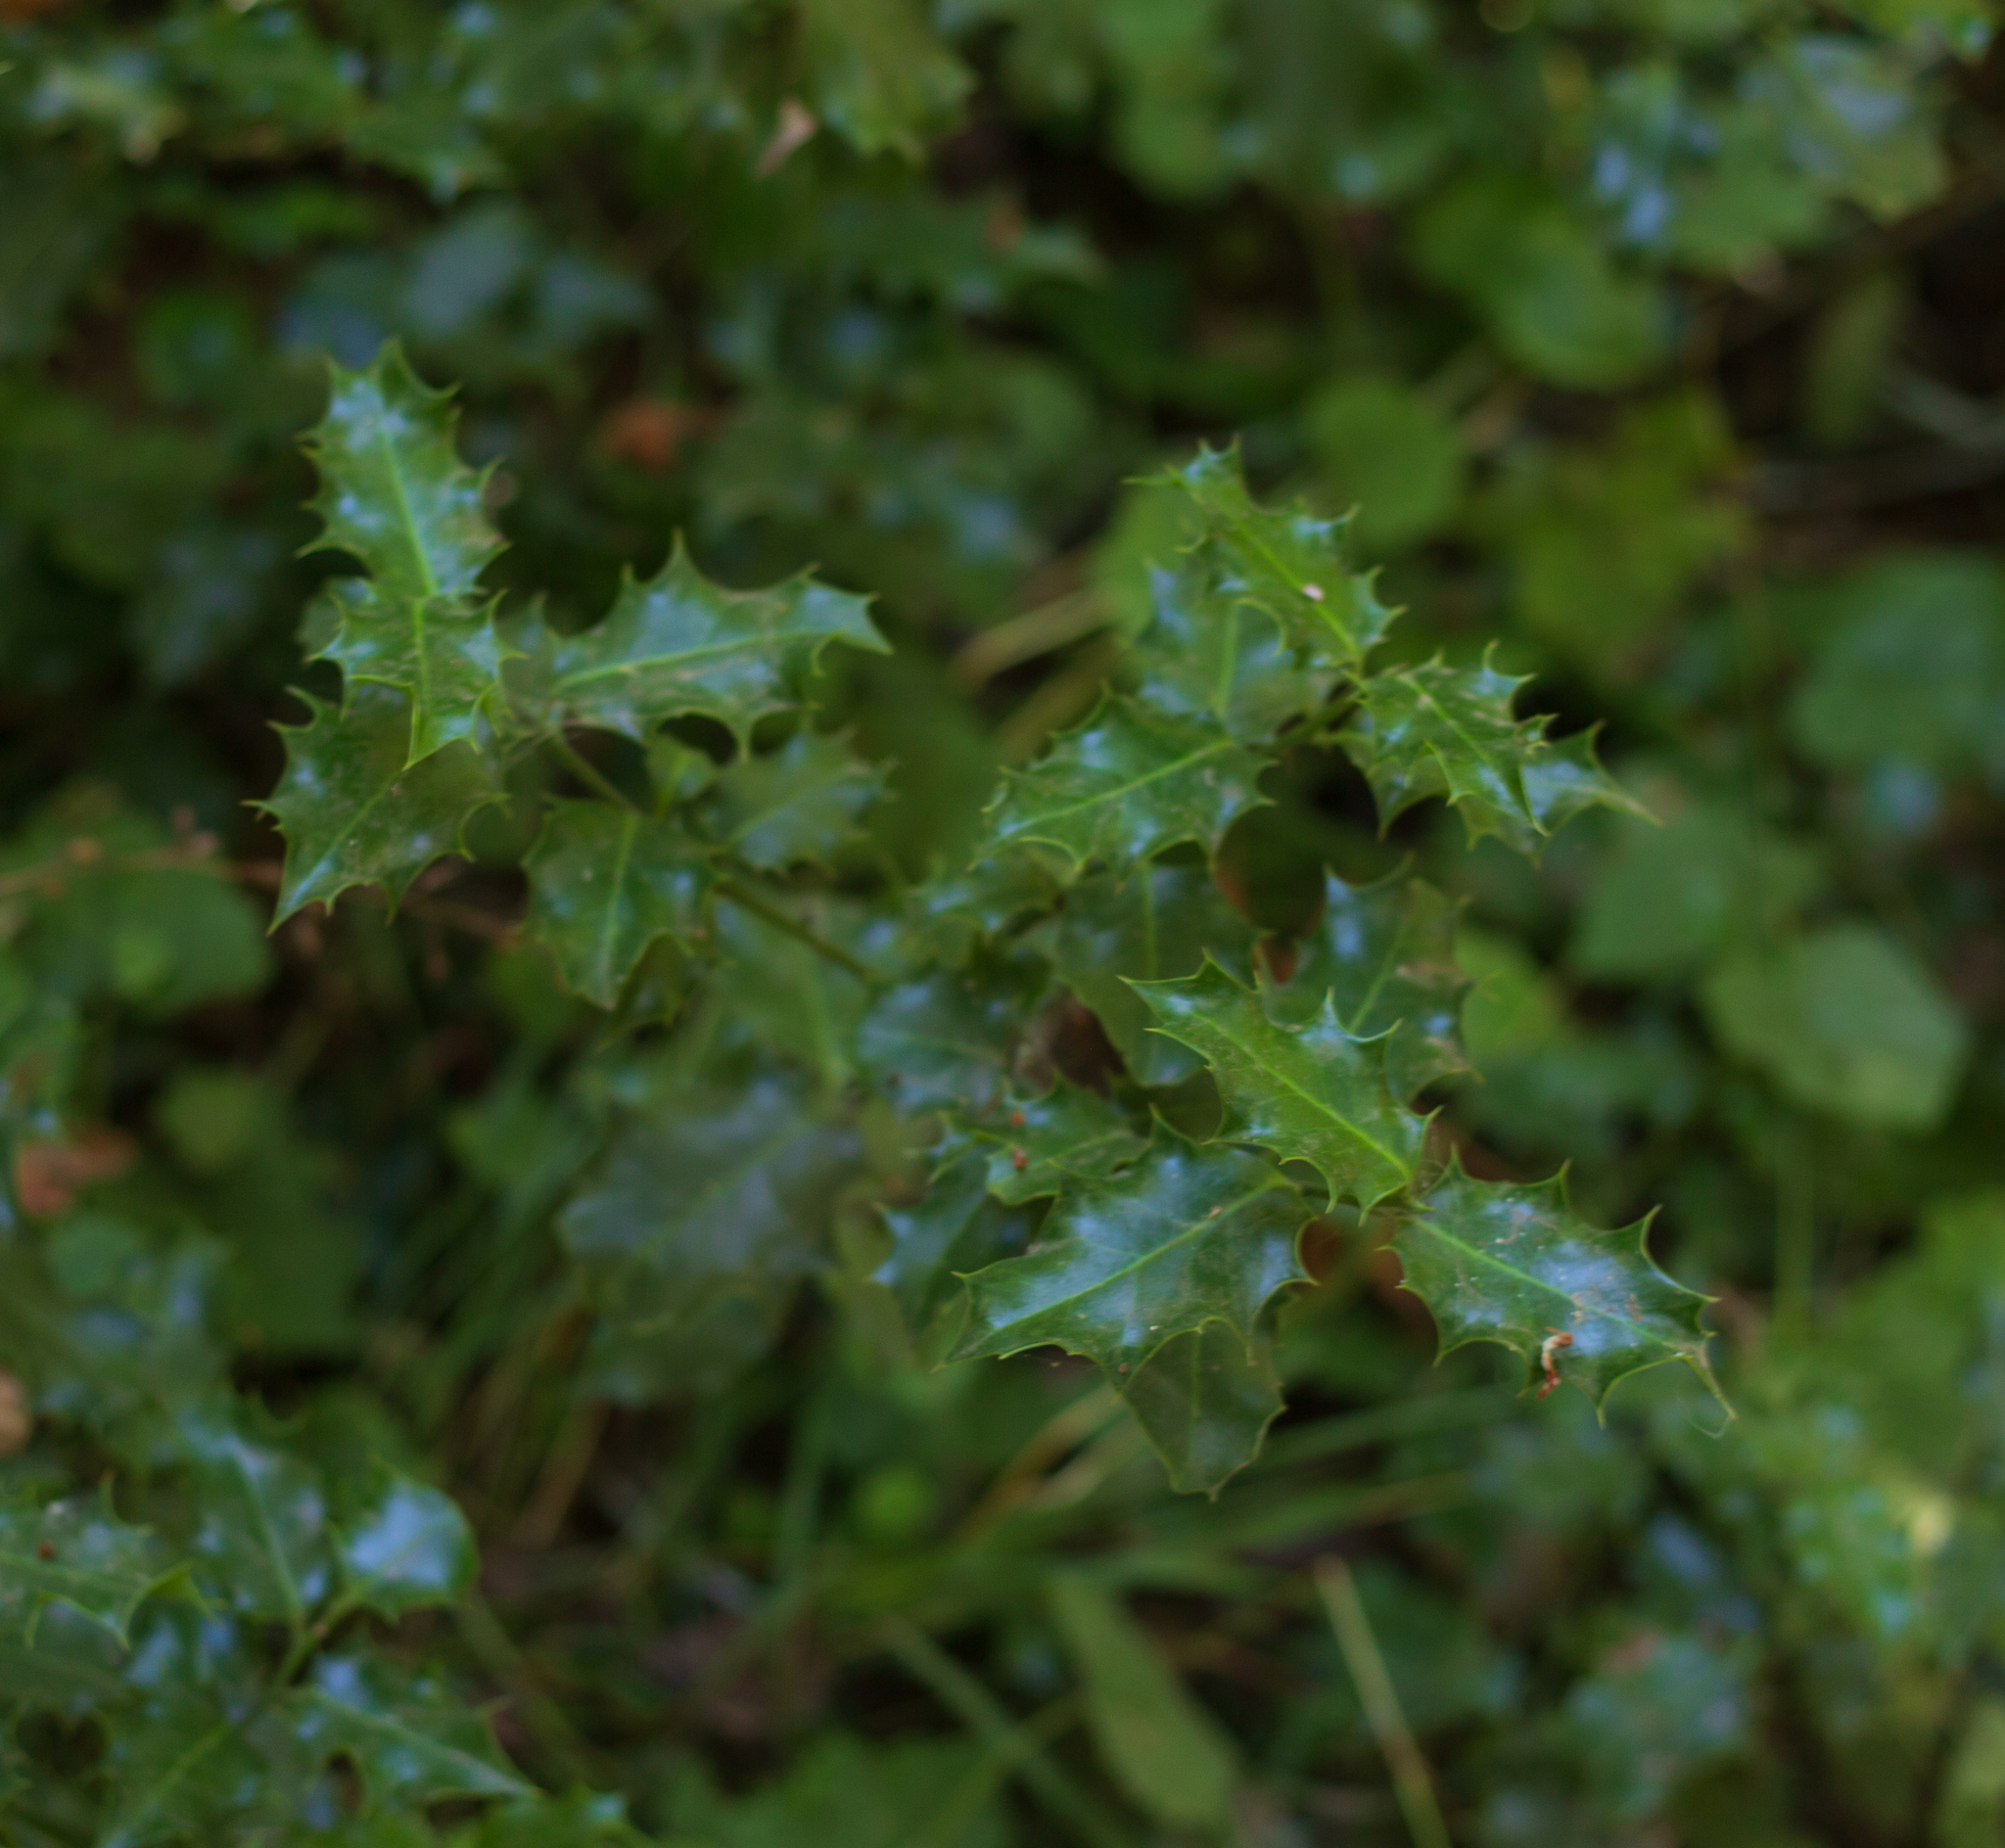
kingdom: Plantae
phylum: Tracheophyta
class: Magnoliopsida
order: Aquifoliales
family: Aquifoliaceae
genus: Ilex
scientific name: Ilex aquifolium
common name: English holly
